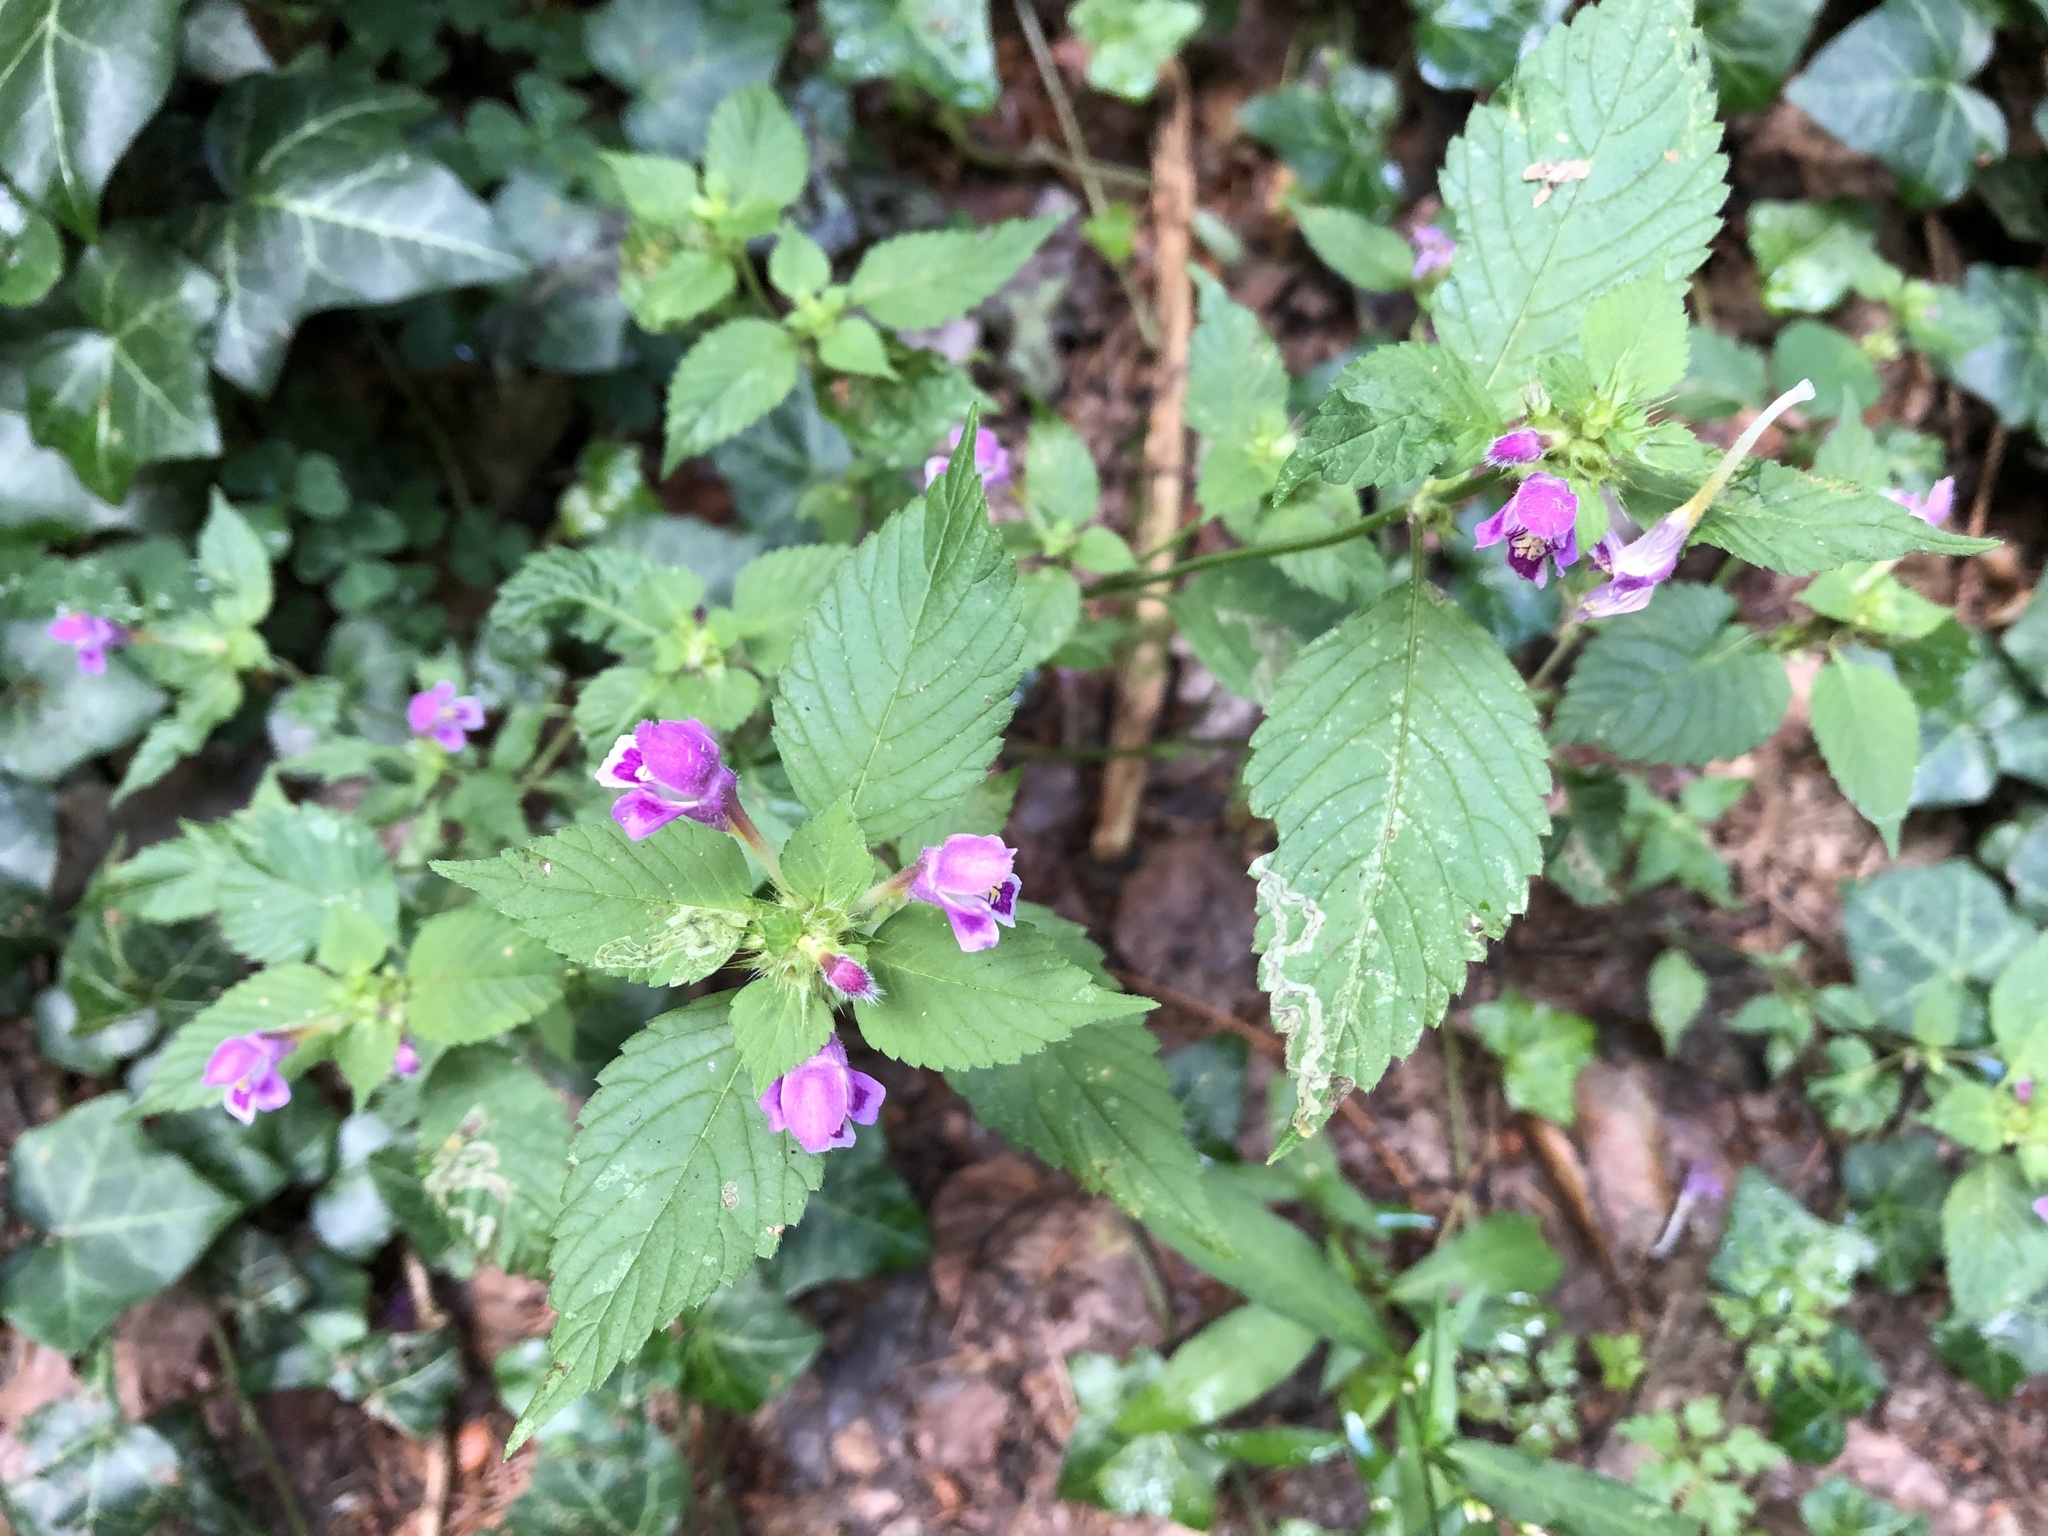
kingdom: Plantae
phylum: Tracheophyta
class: Magnoliopsida
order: Lamiales
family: Lamiaceae
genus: Galeopsis
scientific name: Galeopsis pubescens
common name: Downy hemp-nettle
